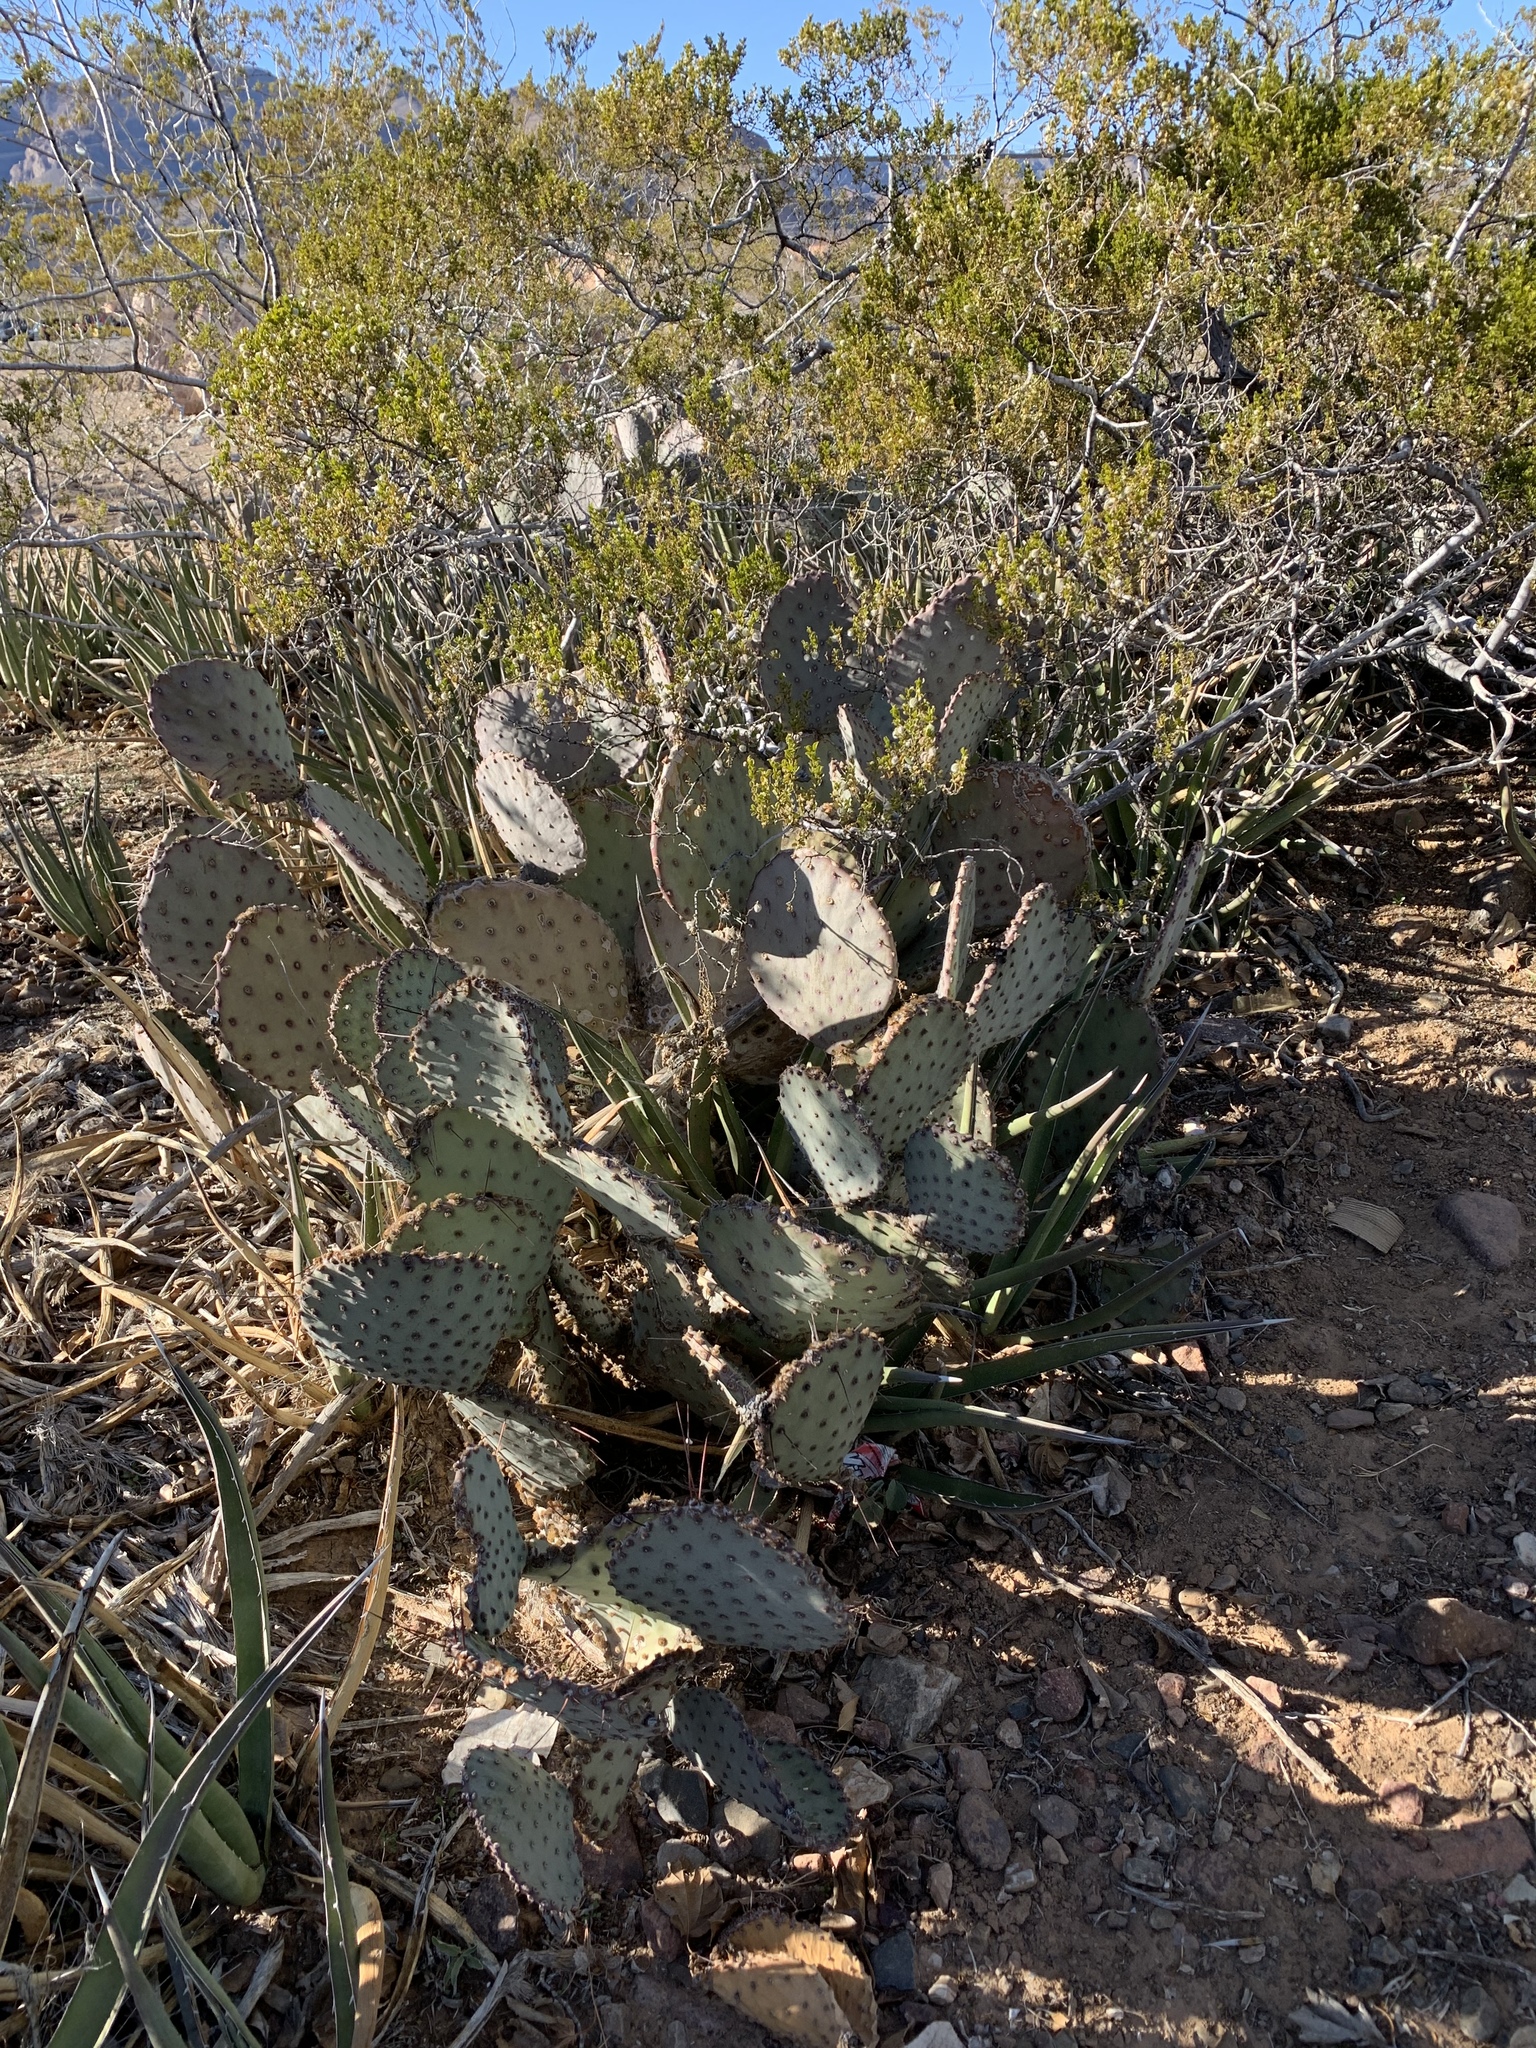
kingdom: Plantae
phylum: Tracheophyta
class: Magnoliopsida
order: Caryophyllales
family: Cactaceae
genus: Opuntia
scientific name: Opuntia macrocentra
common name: Purple prickly-pear
